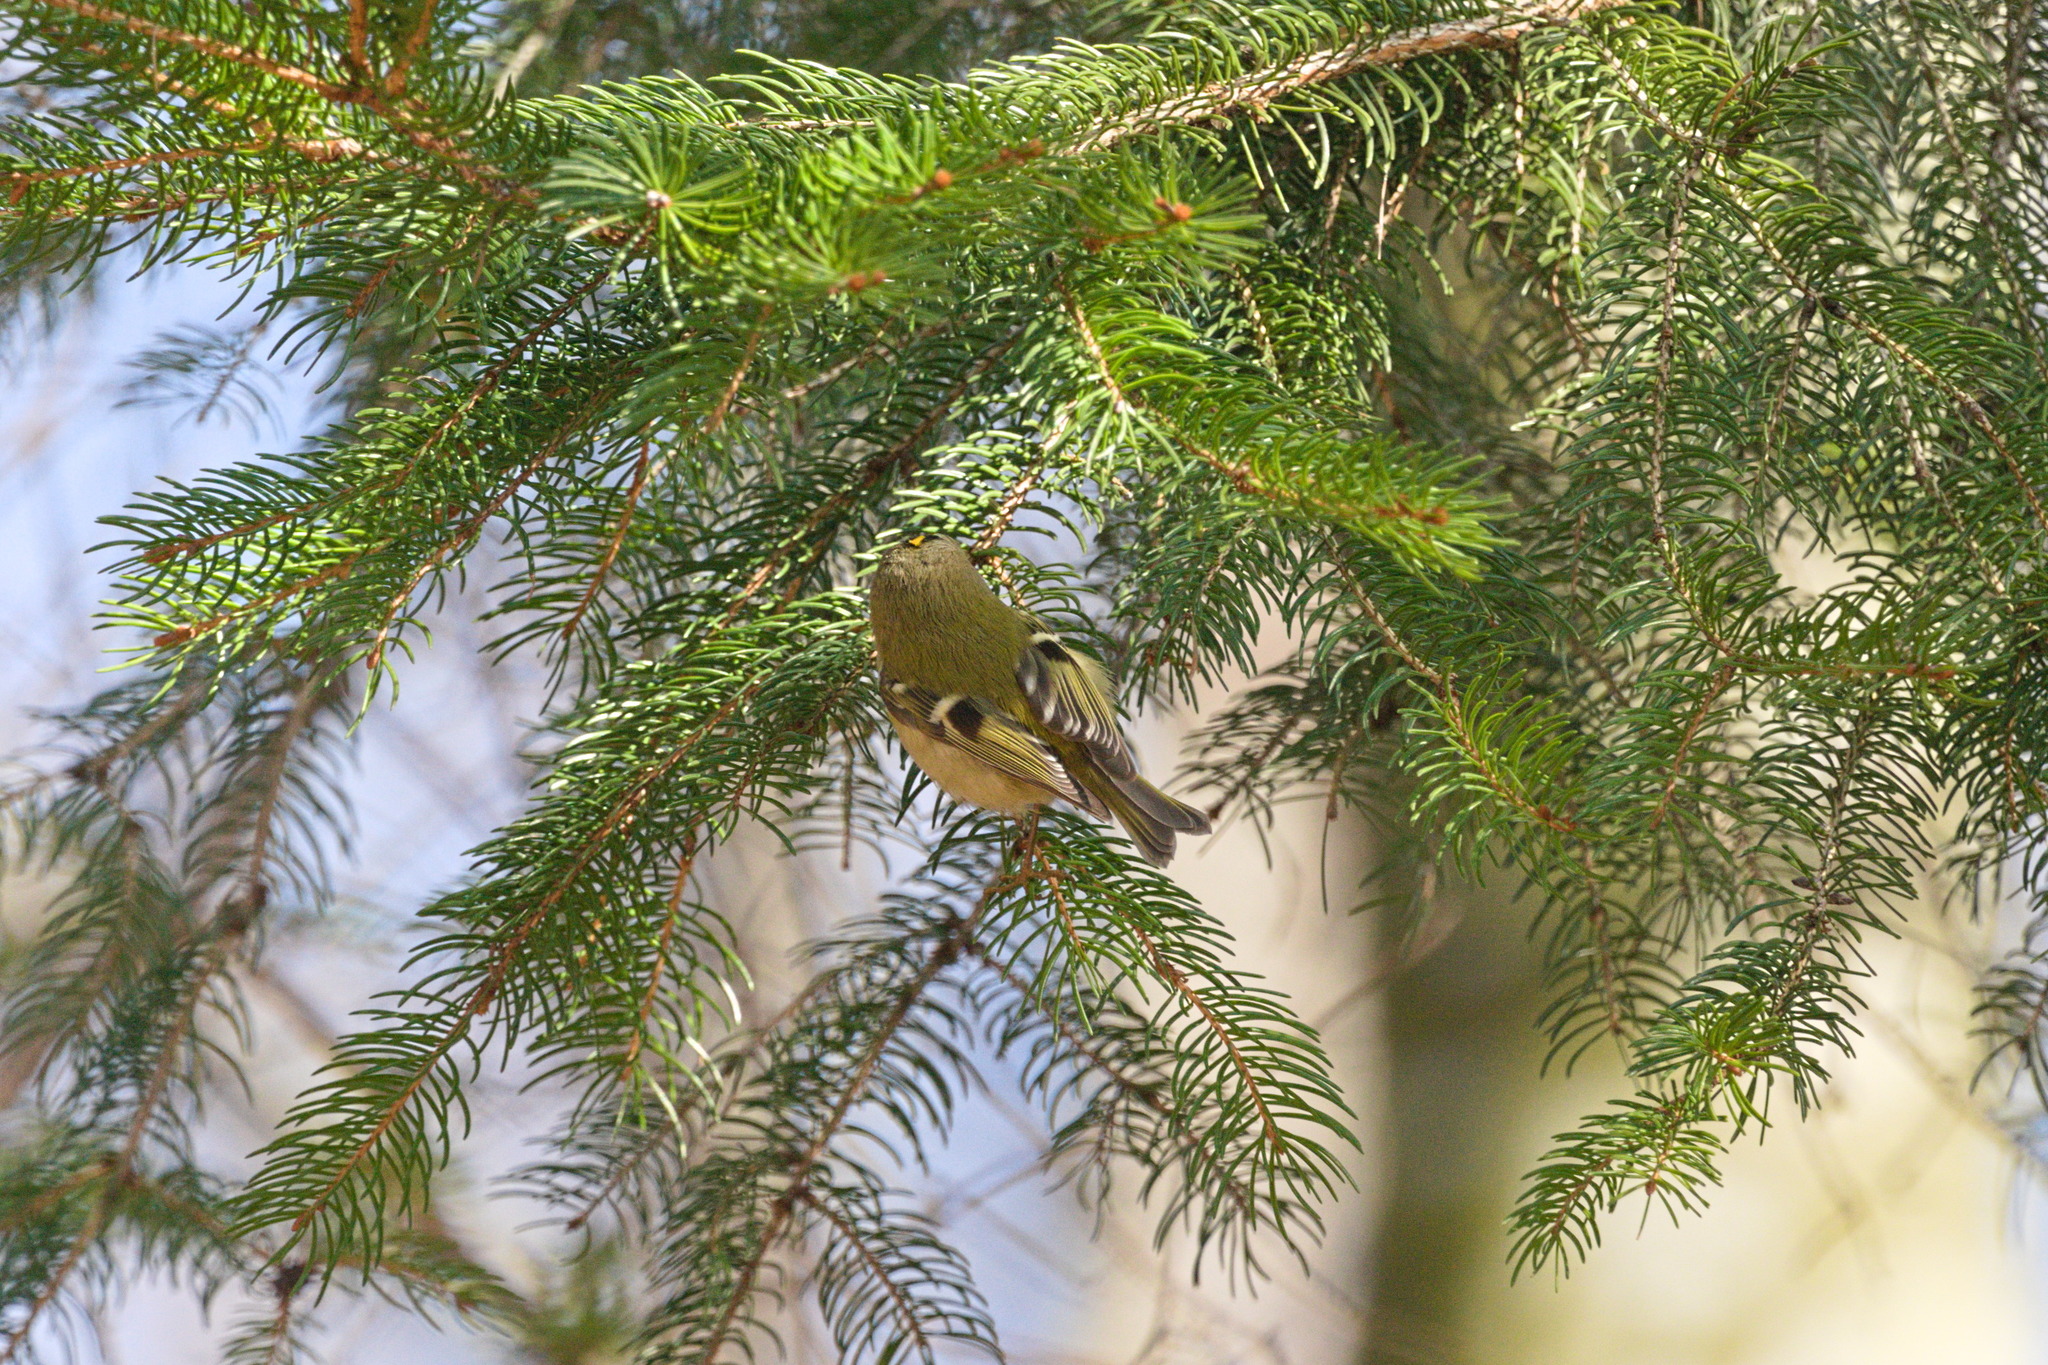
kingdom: Animalia
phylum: Chordata
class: Aves
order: Passeriformes
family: Regulidae
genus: Regulus
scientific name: Regulus regulus
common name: Goldcrest
